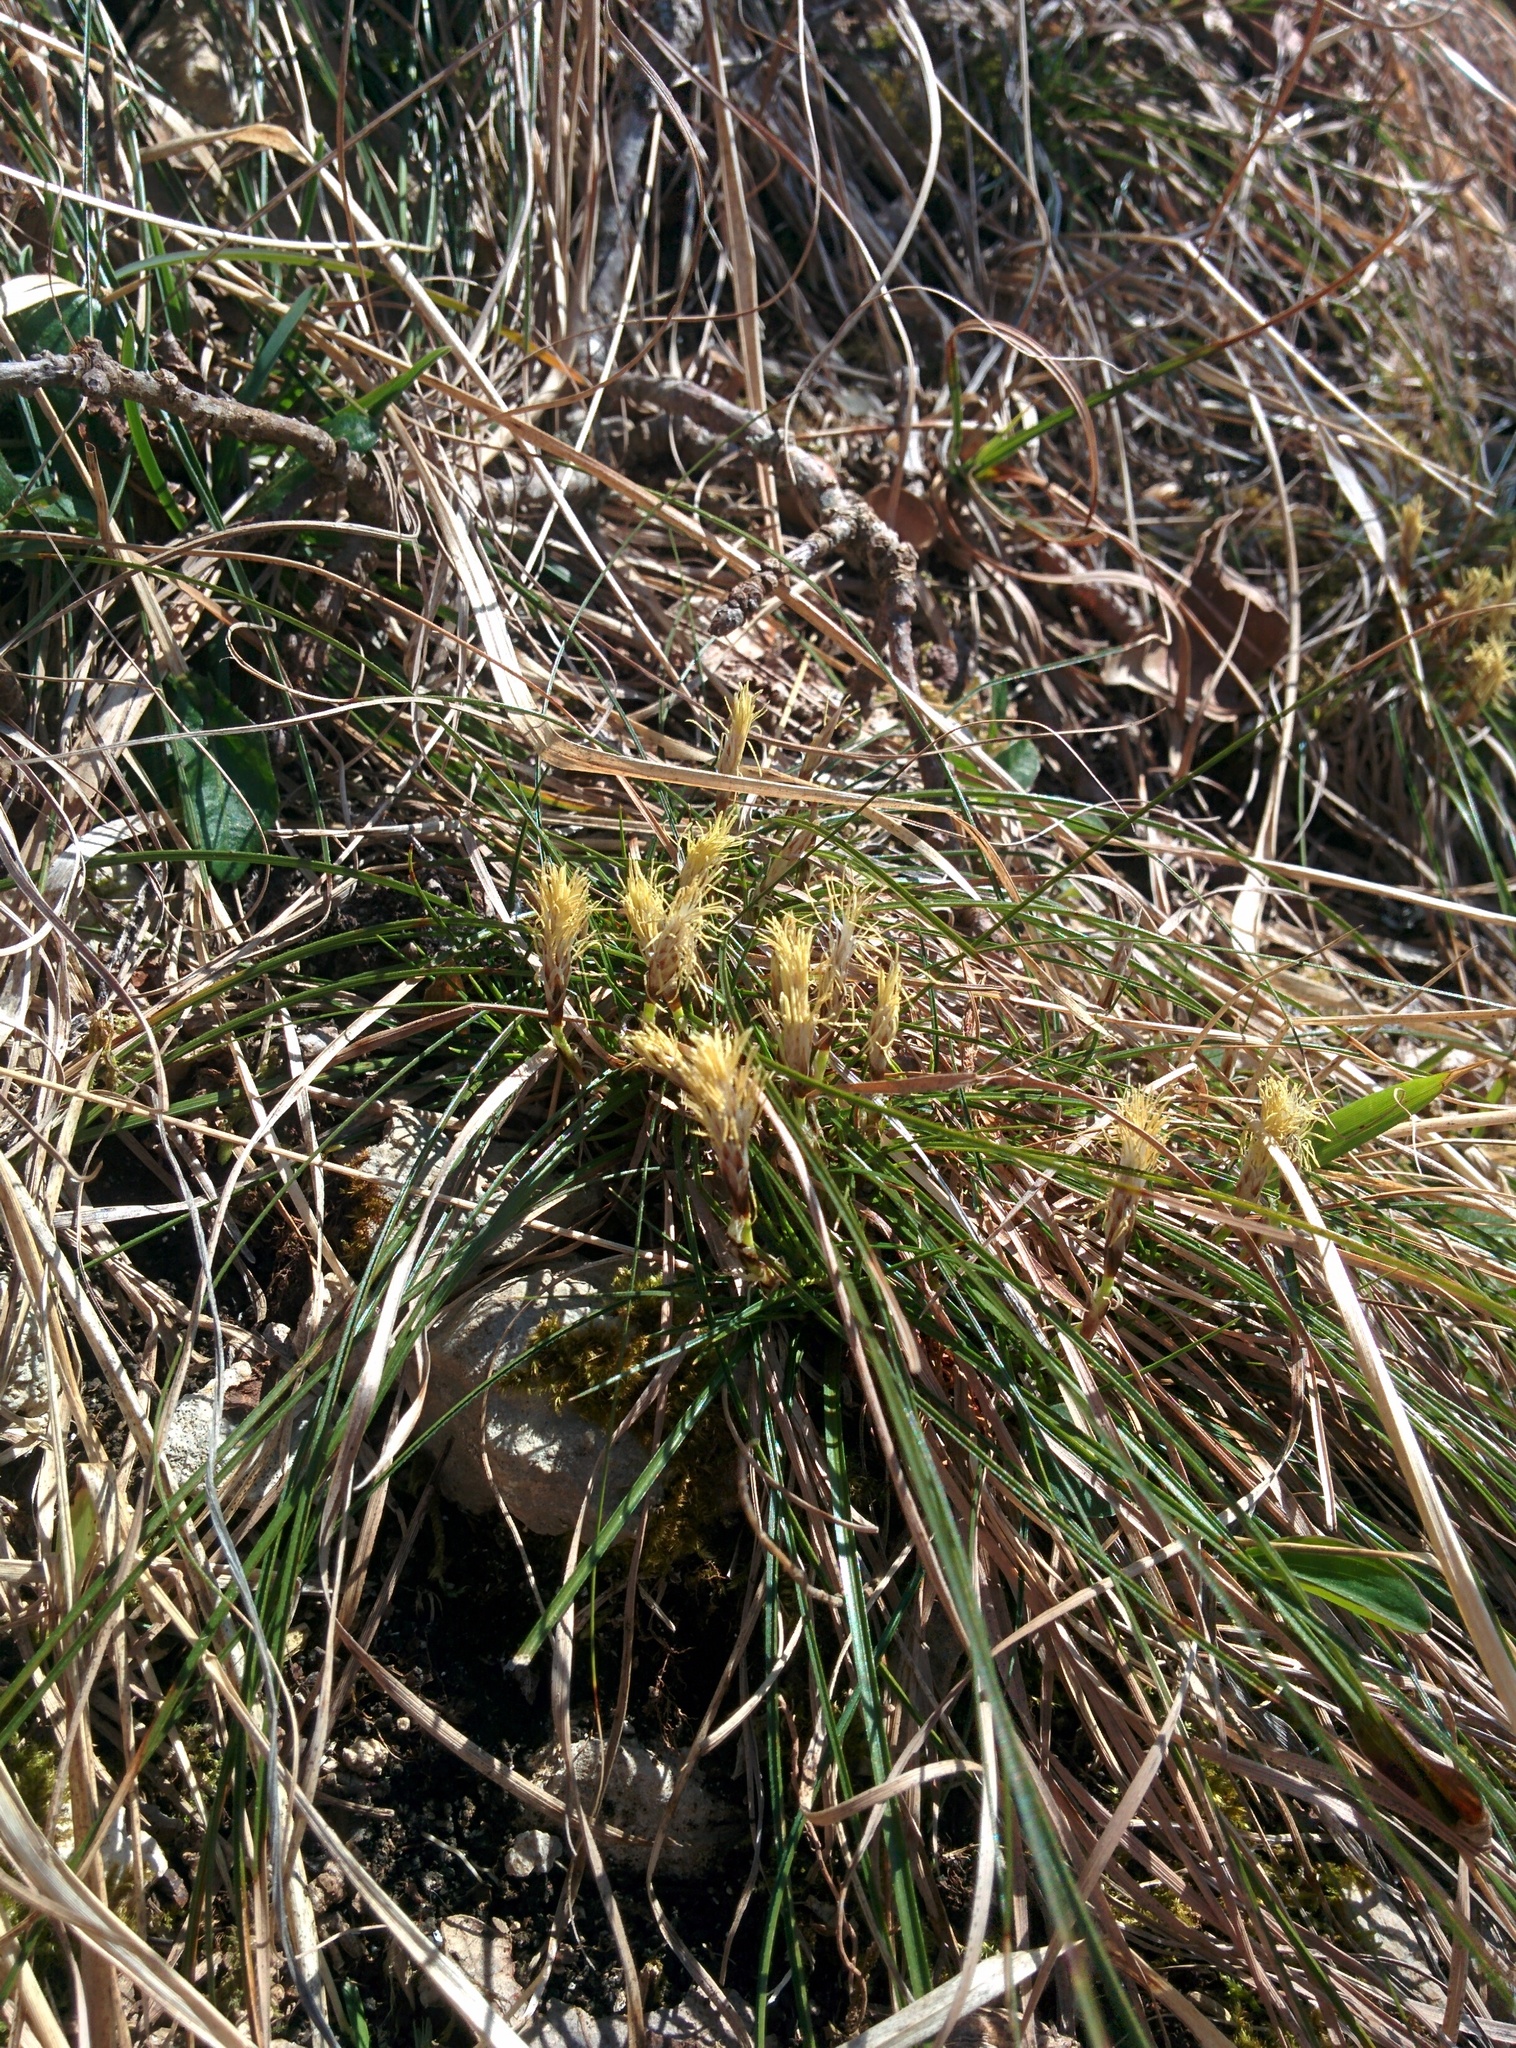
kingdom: Plantae
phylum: Tracheophyta
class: Liliopsida
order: Poales
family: Cyperaceae
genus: Carex
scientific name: Carex humilis
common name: Dwarf sedge
